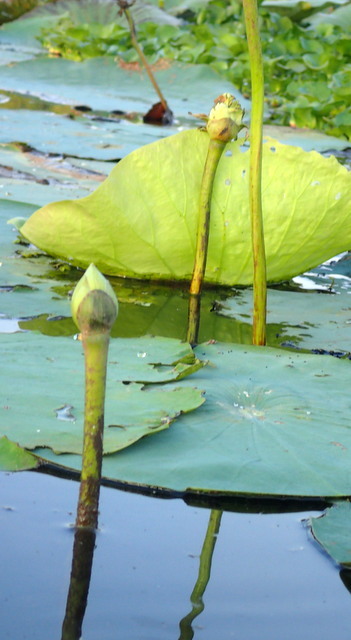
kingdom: Plantae
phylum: Tracheophyta
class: Magnoliopsida
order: Proteales
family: Nelumbonaceae
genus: Nelumbo
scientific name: Nelumbo lutea
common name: American lotus
